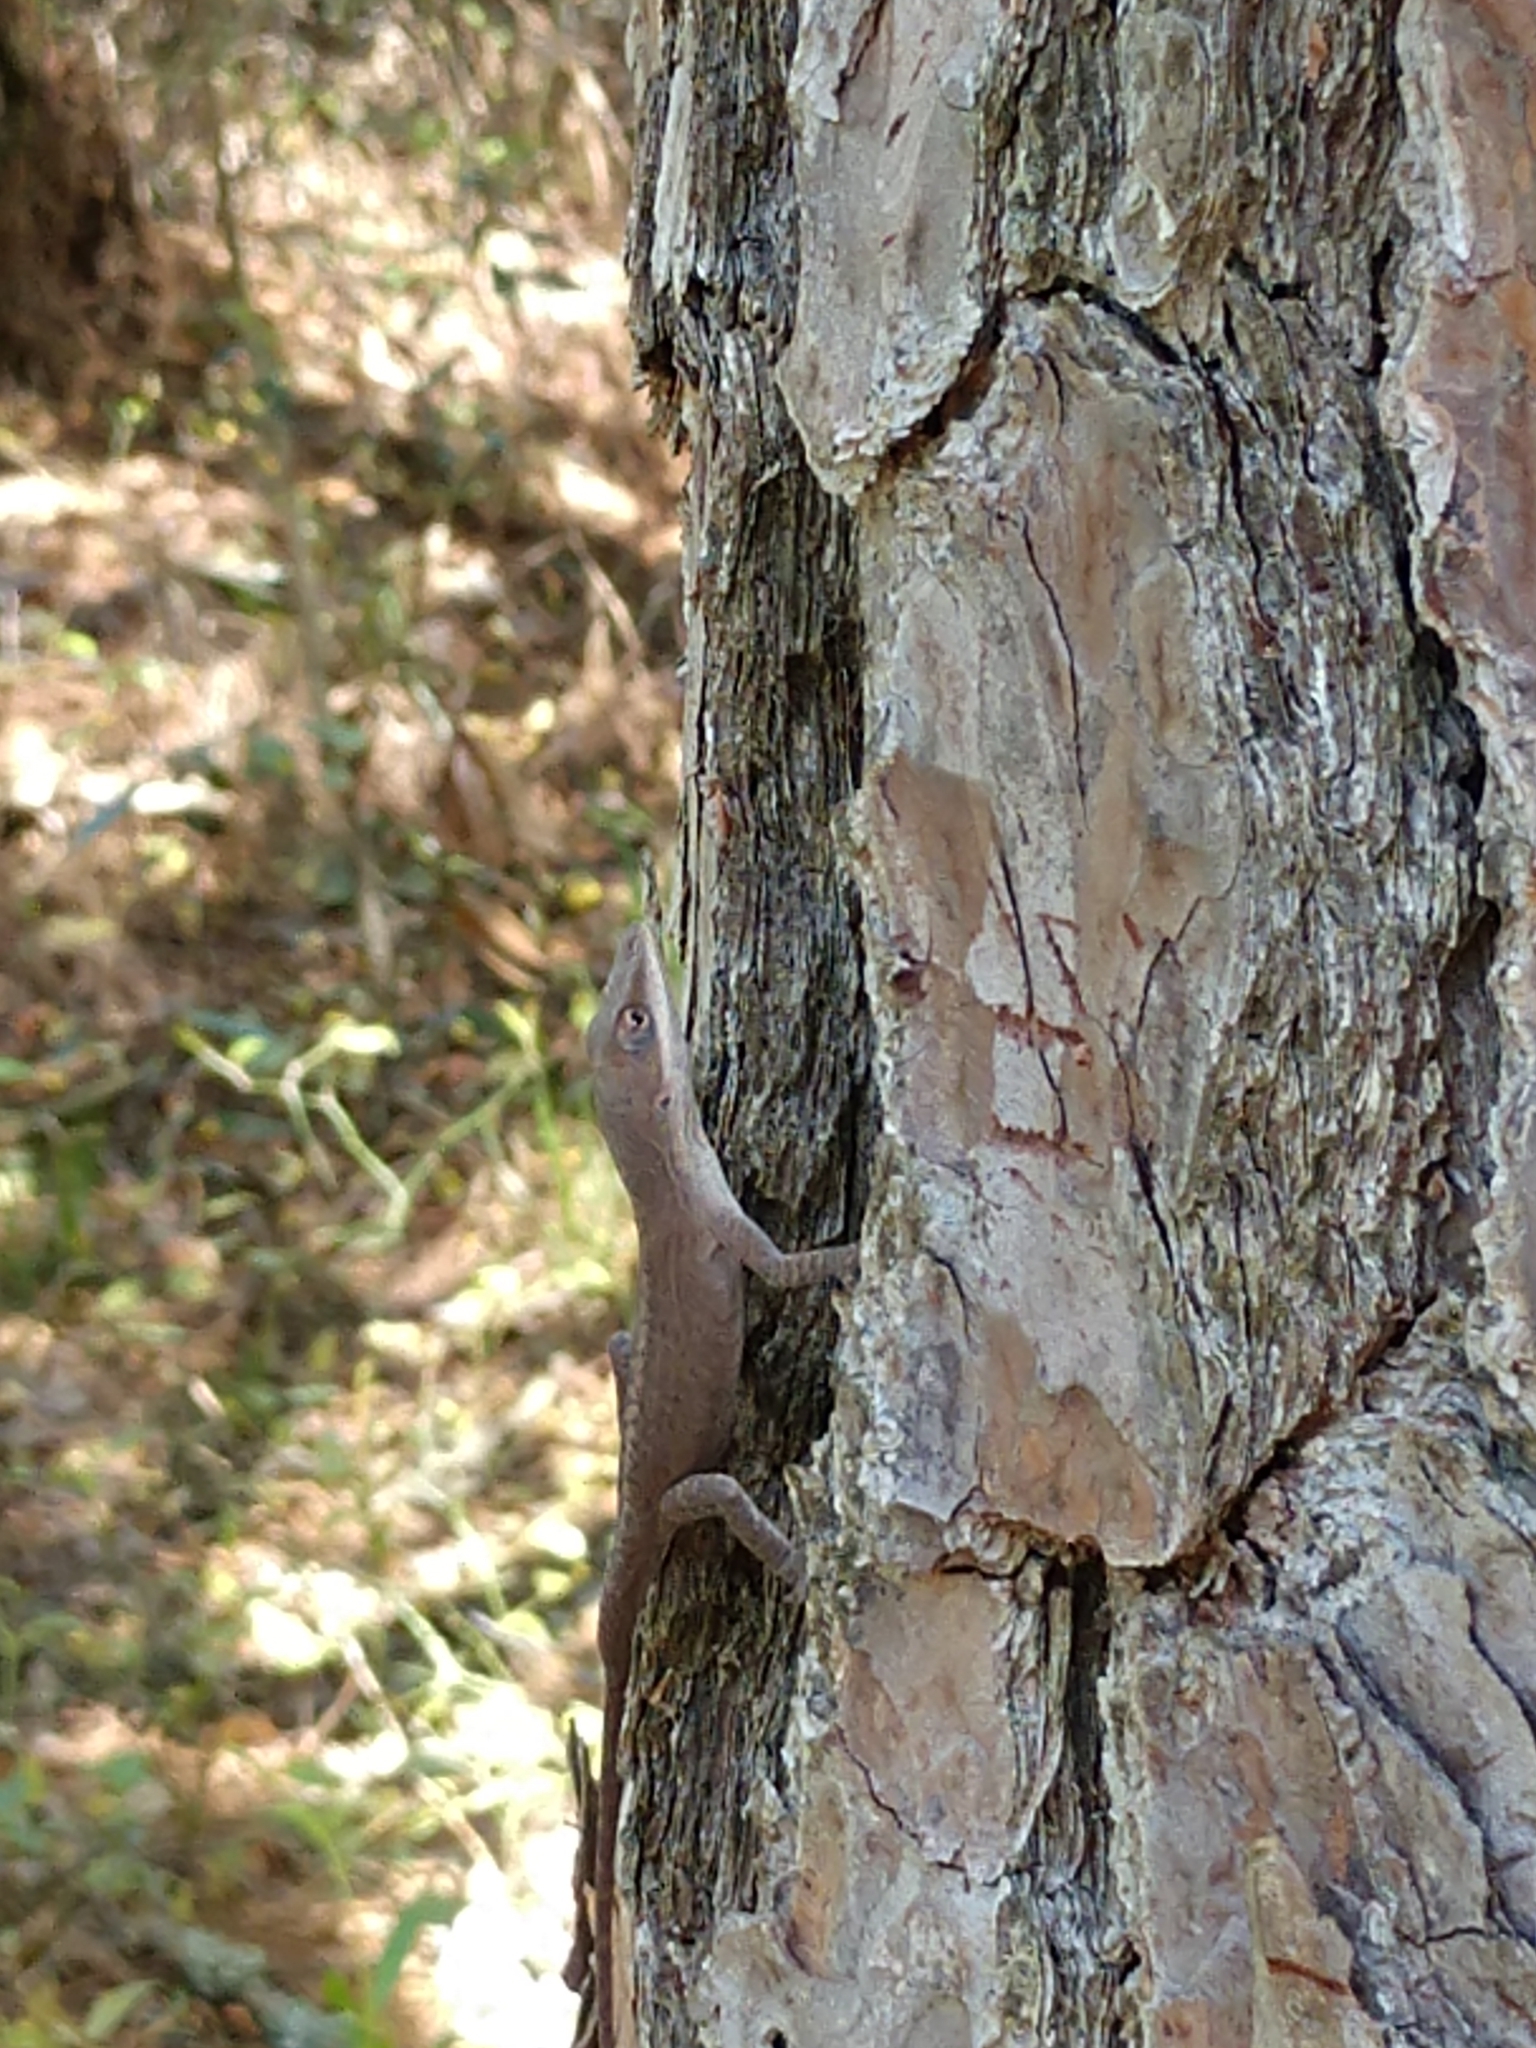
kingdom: Animalia
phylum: Chordata
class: Squamata
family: Dactyloidae
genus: Anolis
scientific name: Anolis carolinensis
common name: Green anole
